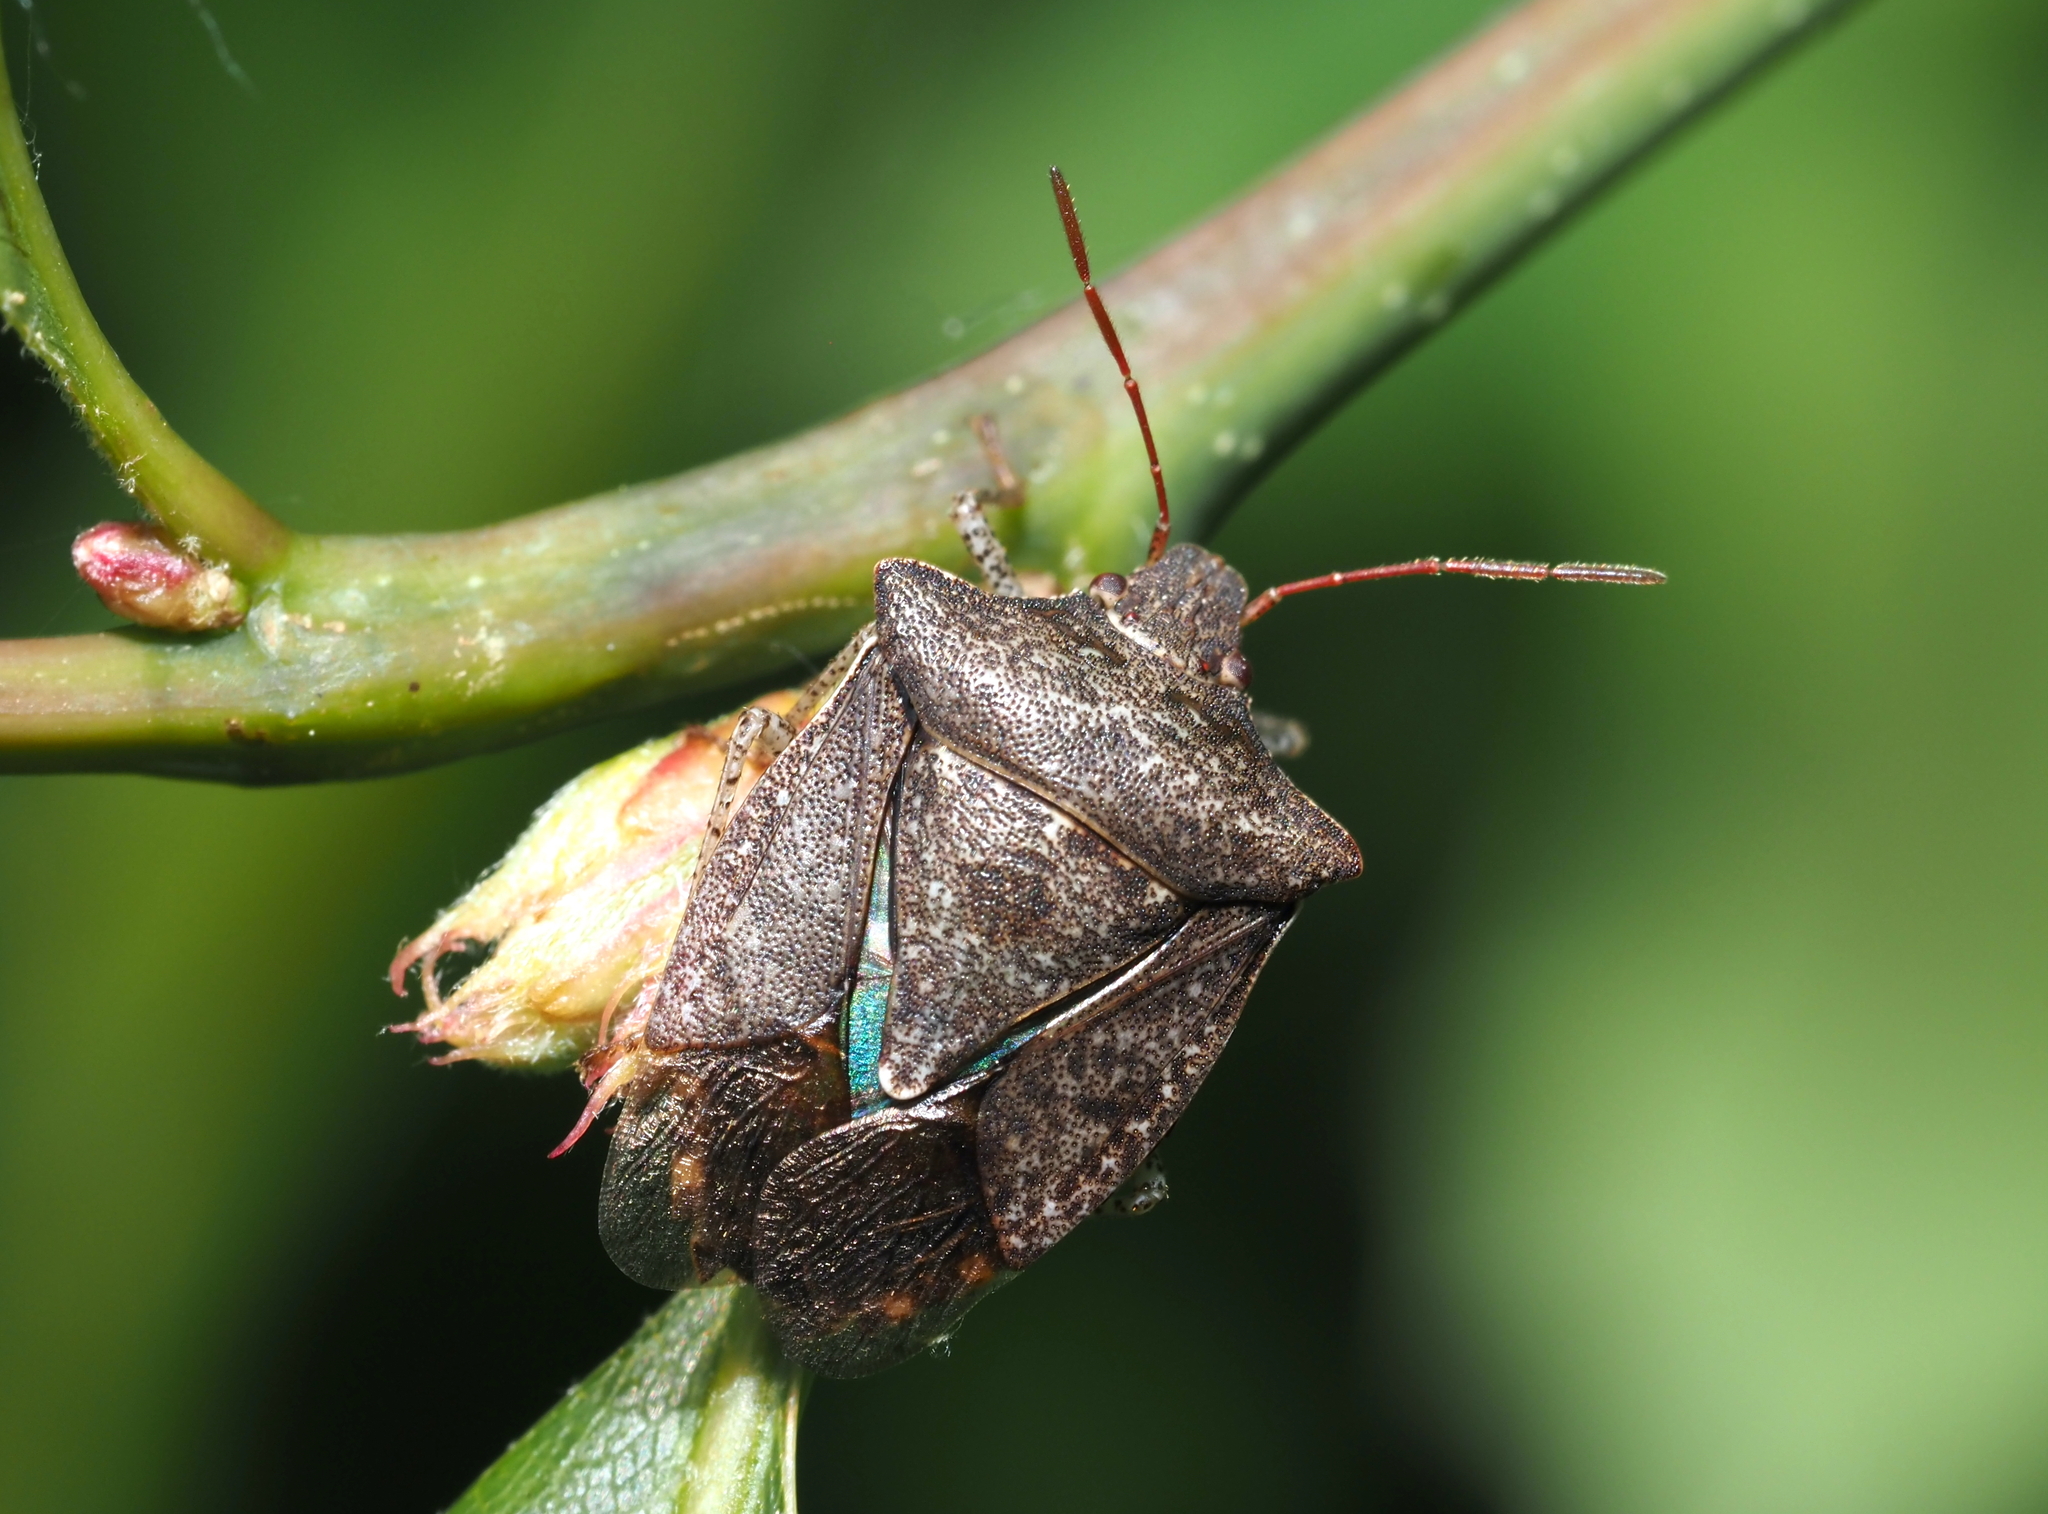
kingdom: Animalia
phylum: Arthropoda
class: Insecta
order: Hemiptera
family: Pentatomidae
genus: Euschistus
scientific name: Euschistus tristigmus
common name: Dusky stink bug
